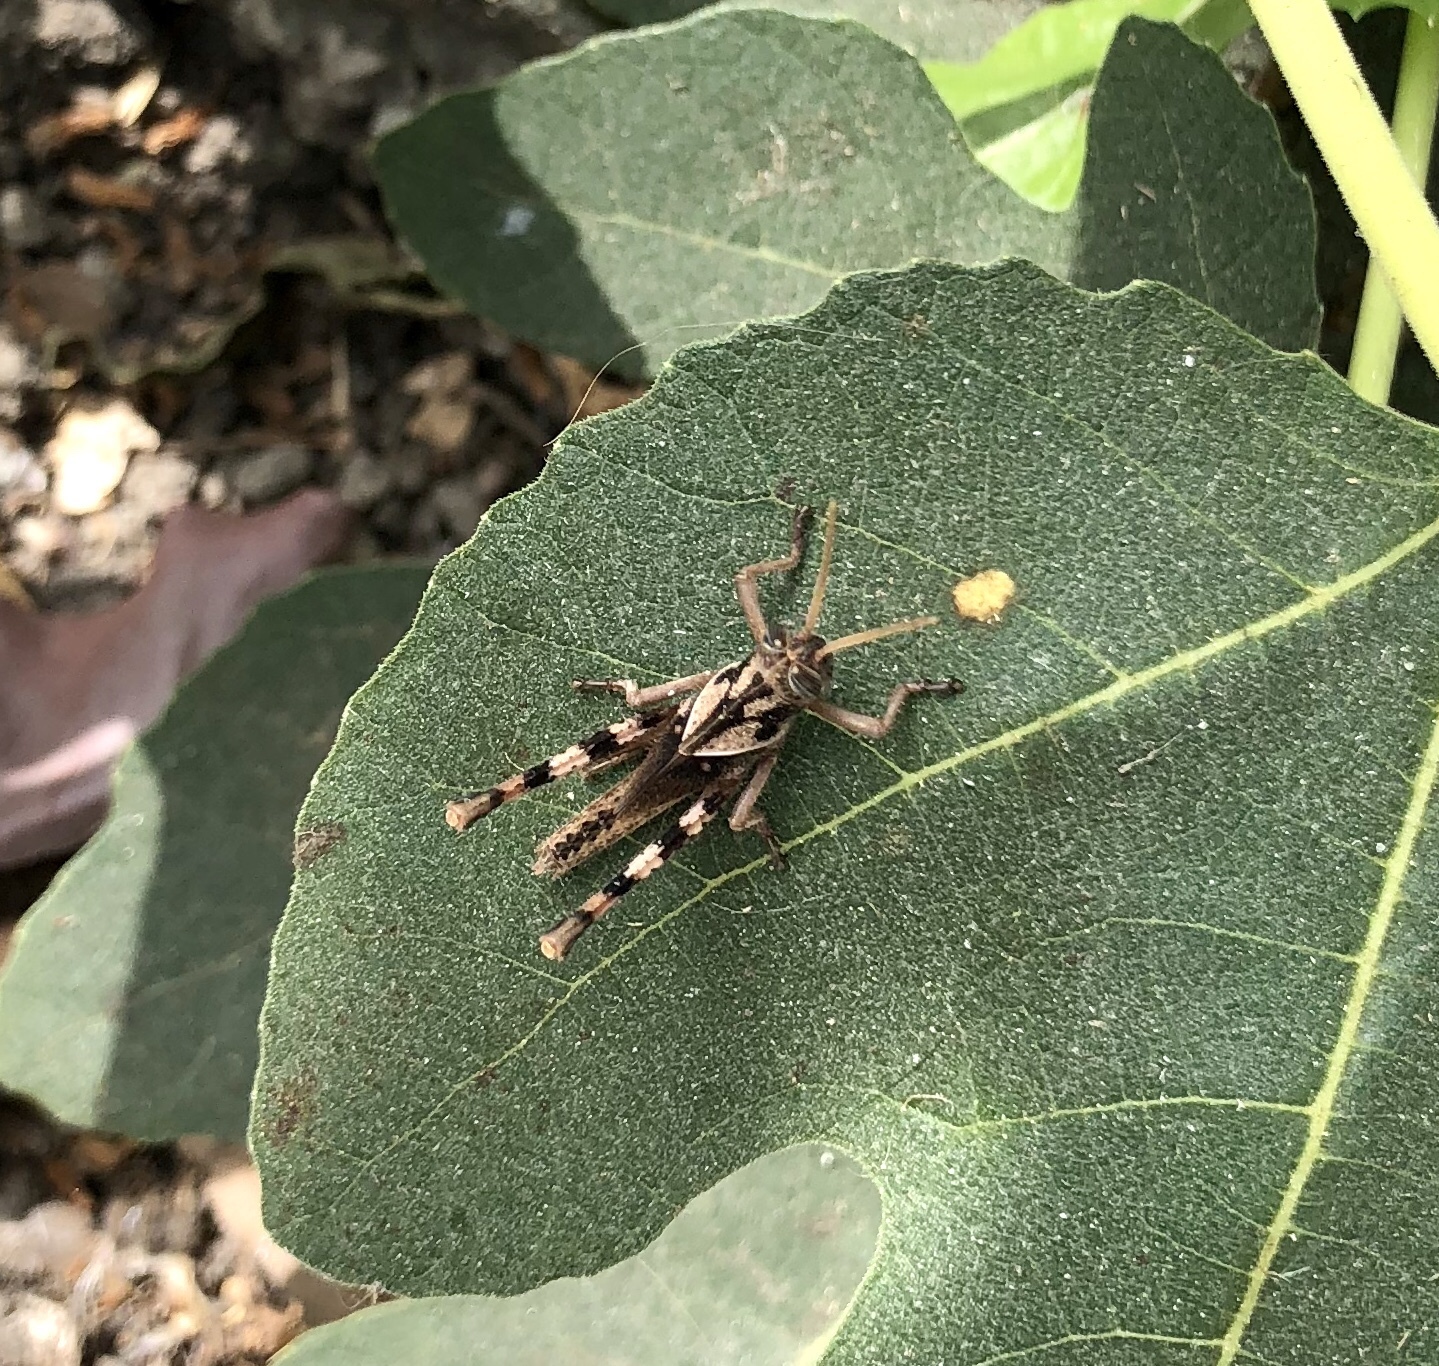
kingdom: Animalia
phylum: Arthropoda
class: Insecta
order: Orthoptera
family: Acrididae
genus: Schistocerca
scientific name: Schistocerca nitens
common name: Vagrant grasshopper
